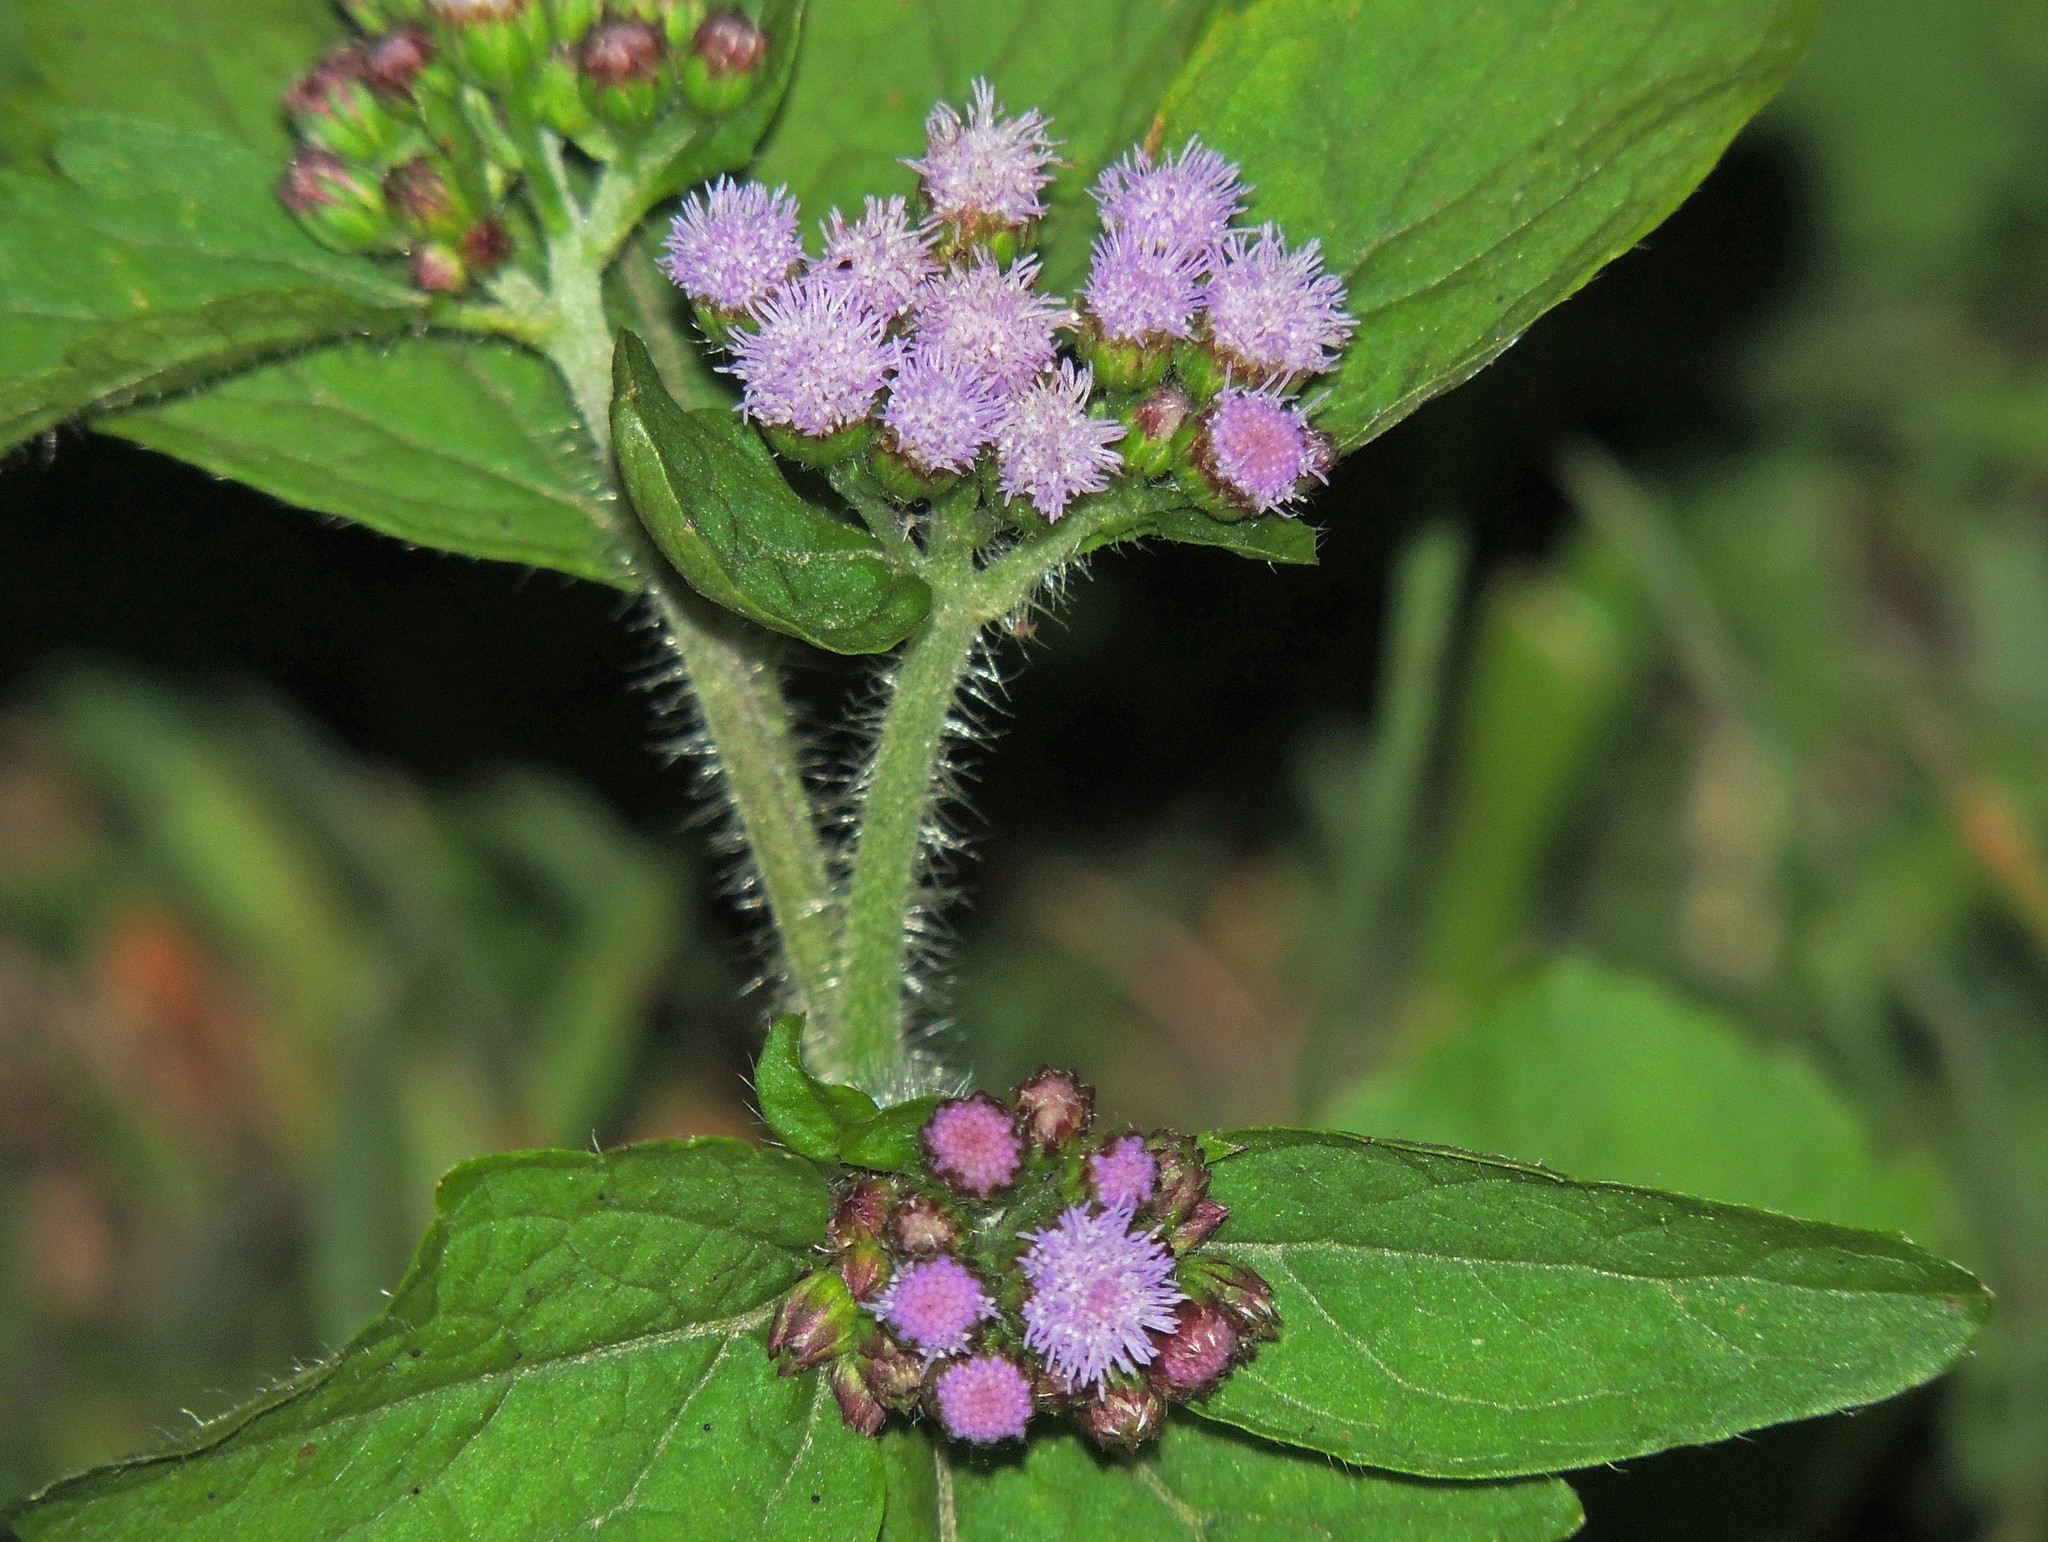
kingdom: Plantae
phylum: Tracheophyta
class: Magnoliopsida
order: Asterales
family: Asteraceae
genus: Ageratum
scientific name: Ageratum conyzoides
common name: Tropical whiteweed
